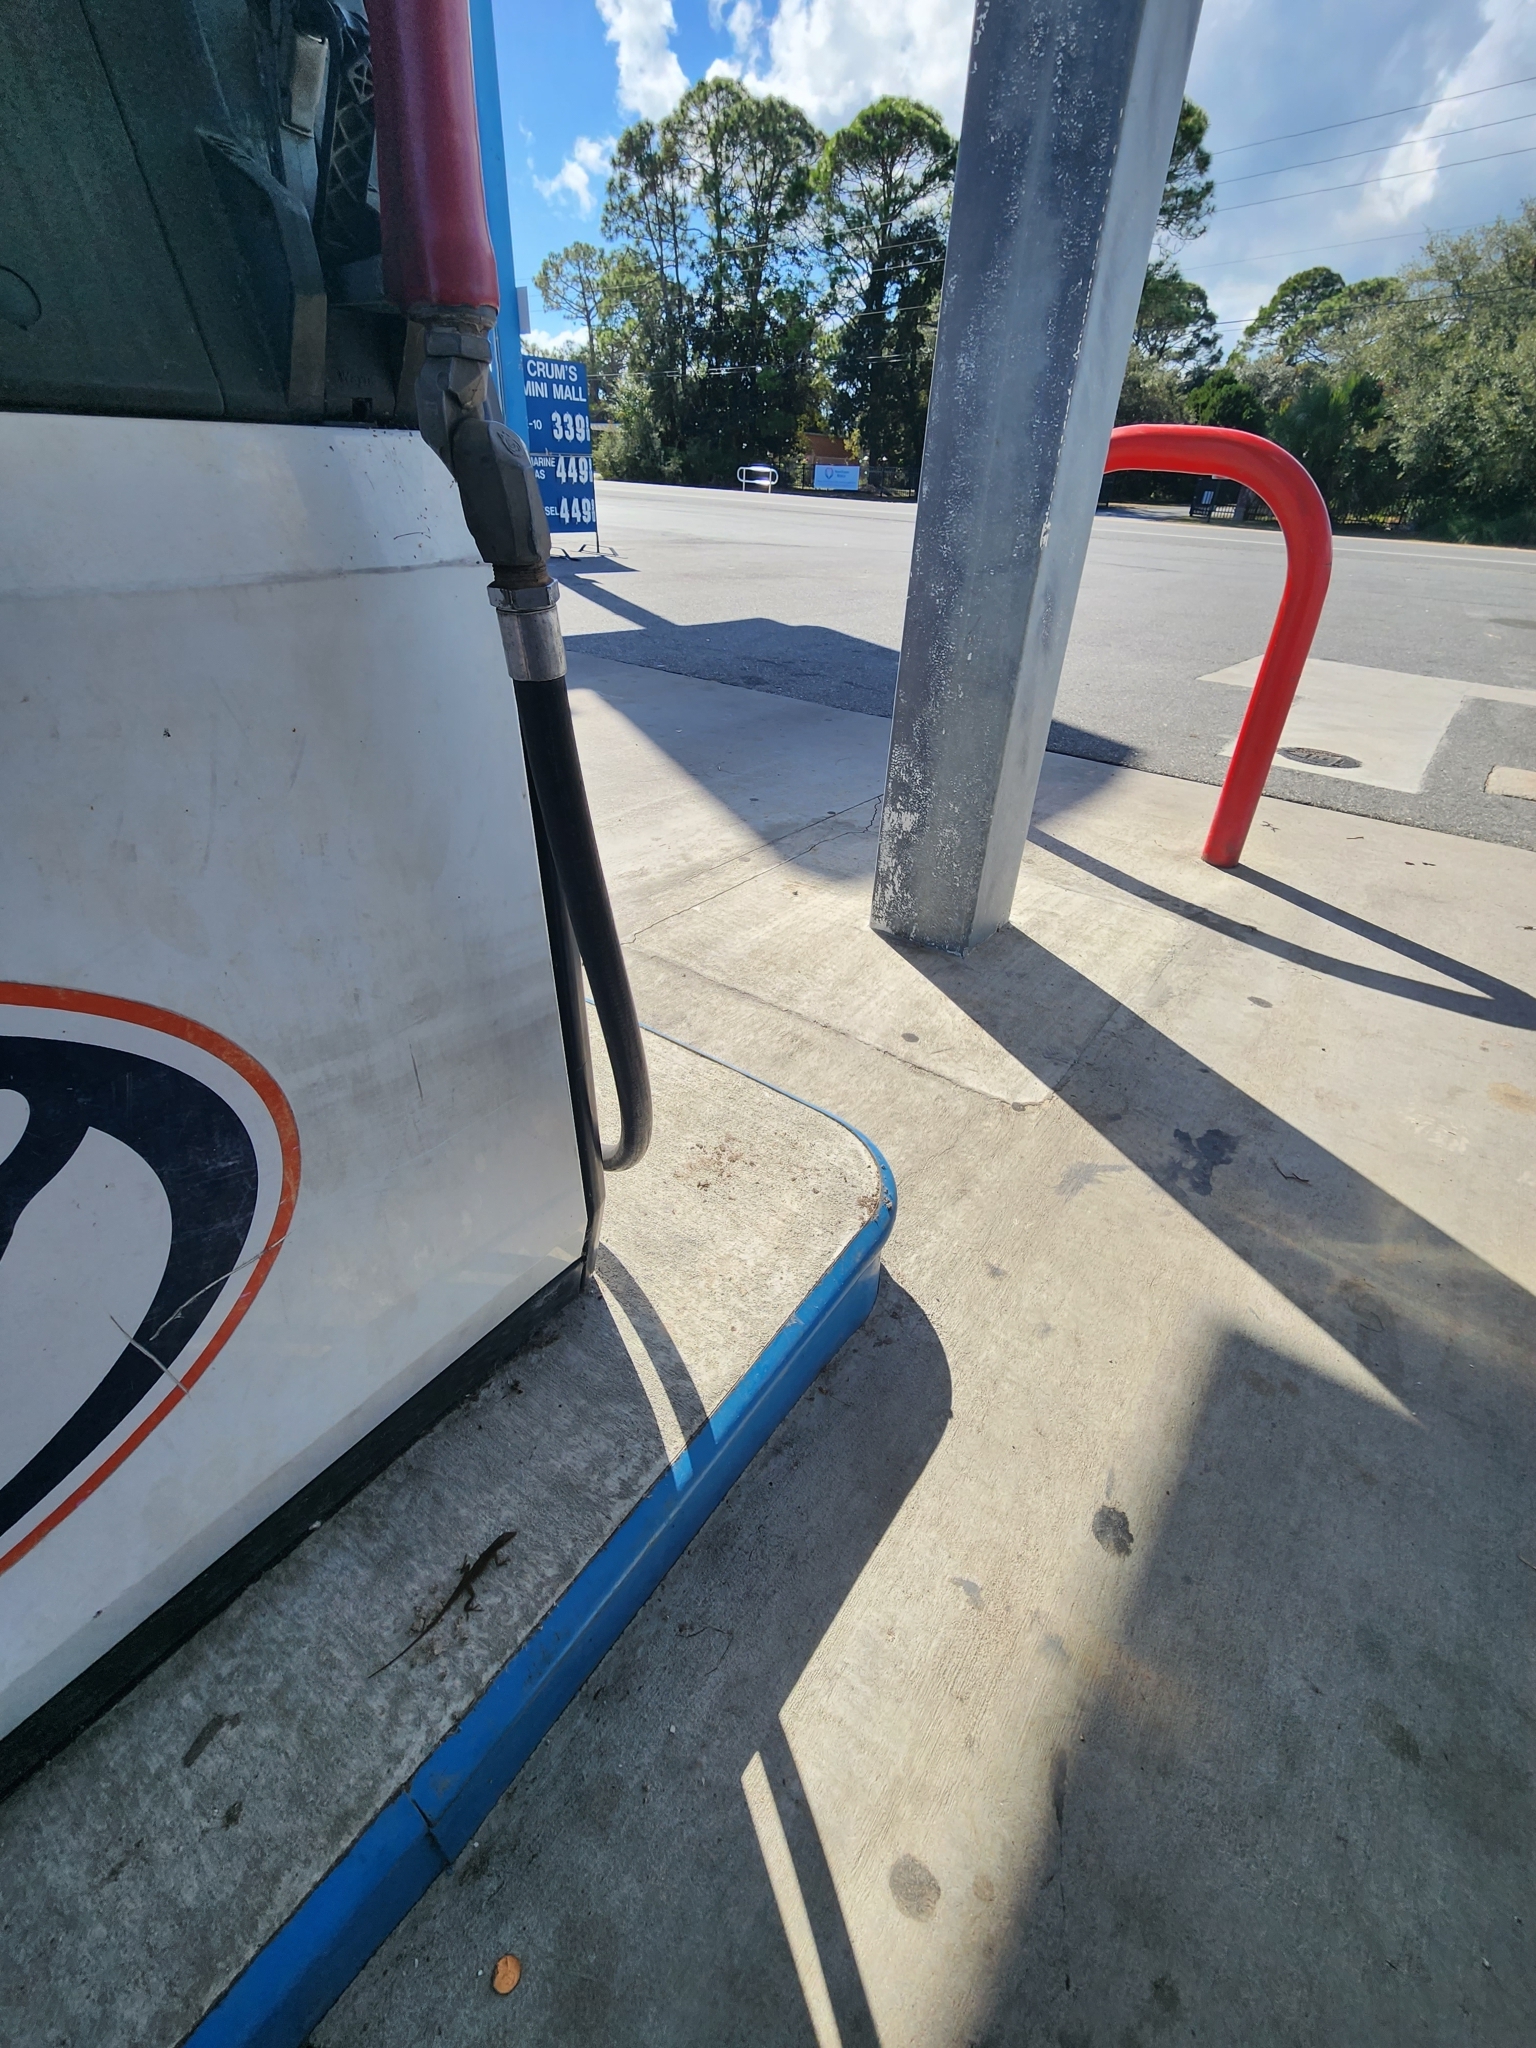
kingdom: Animalia
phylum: Chordata
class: Squamata
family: Dactyloidae
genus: Anolis
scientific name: Anolis carolinensis
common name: Green anole
